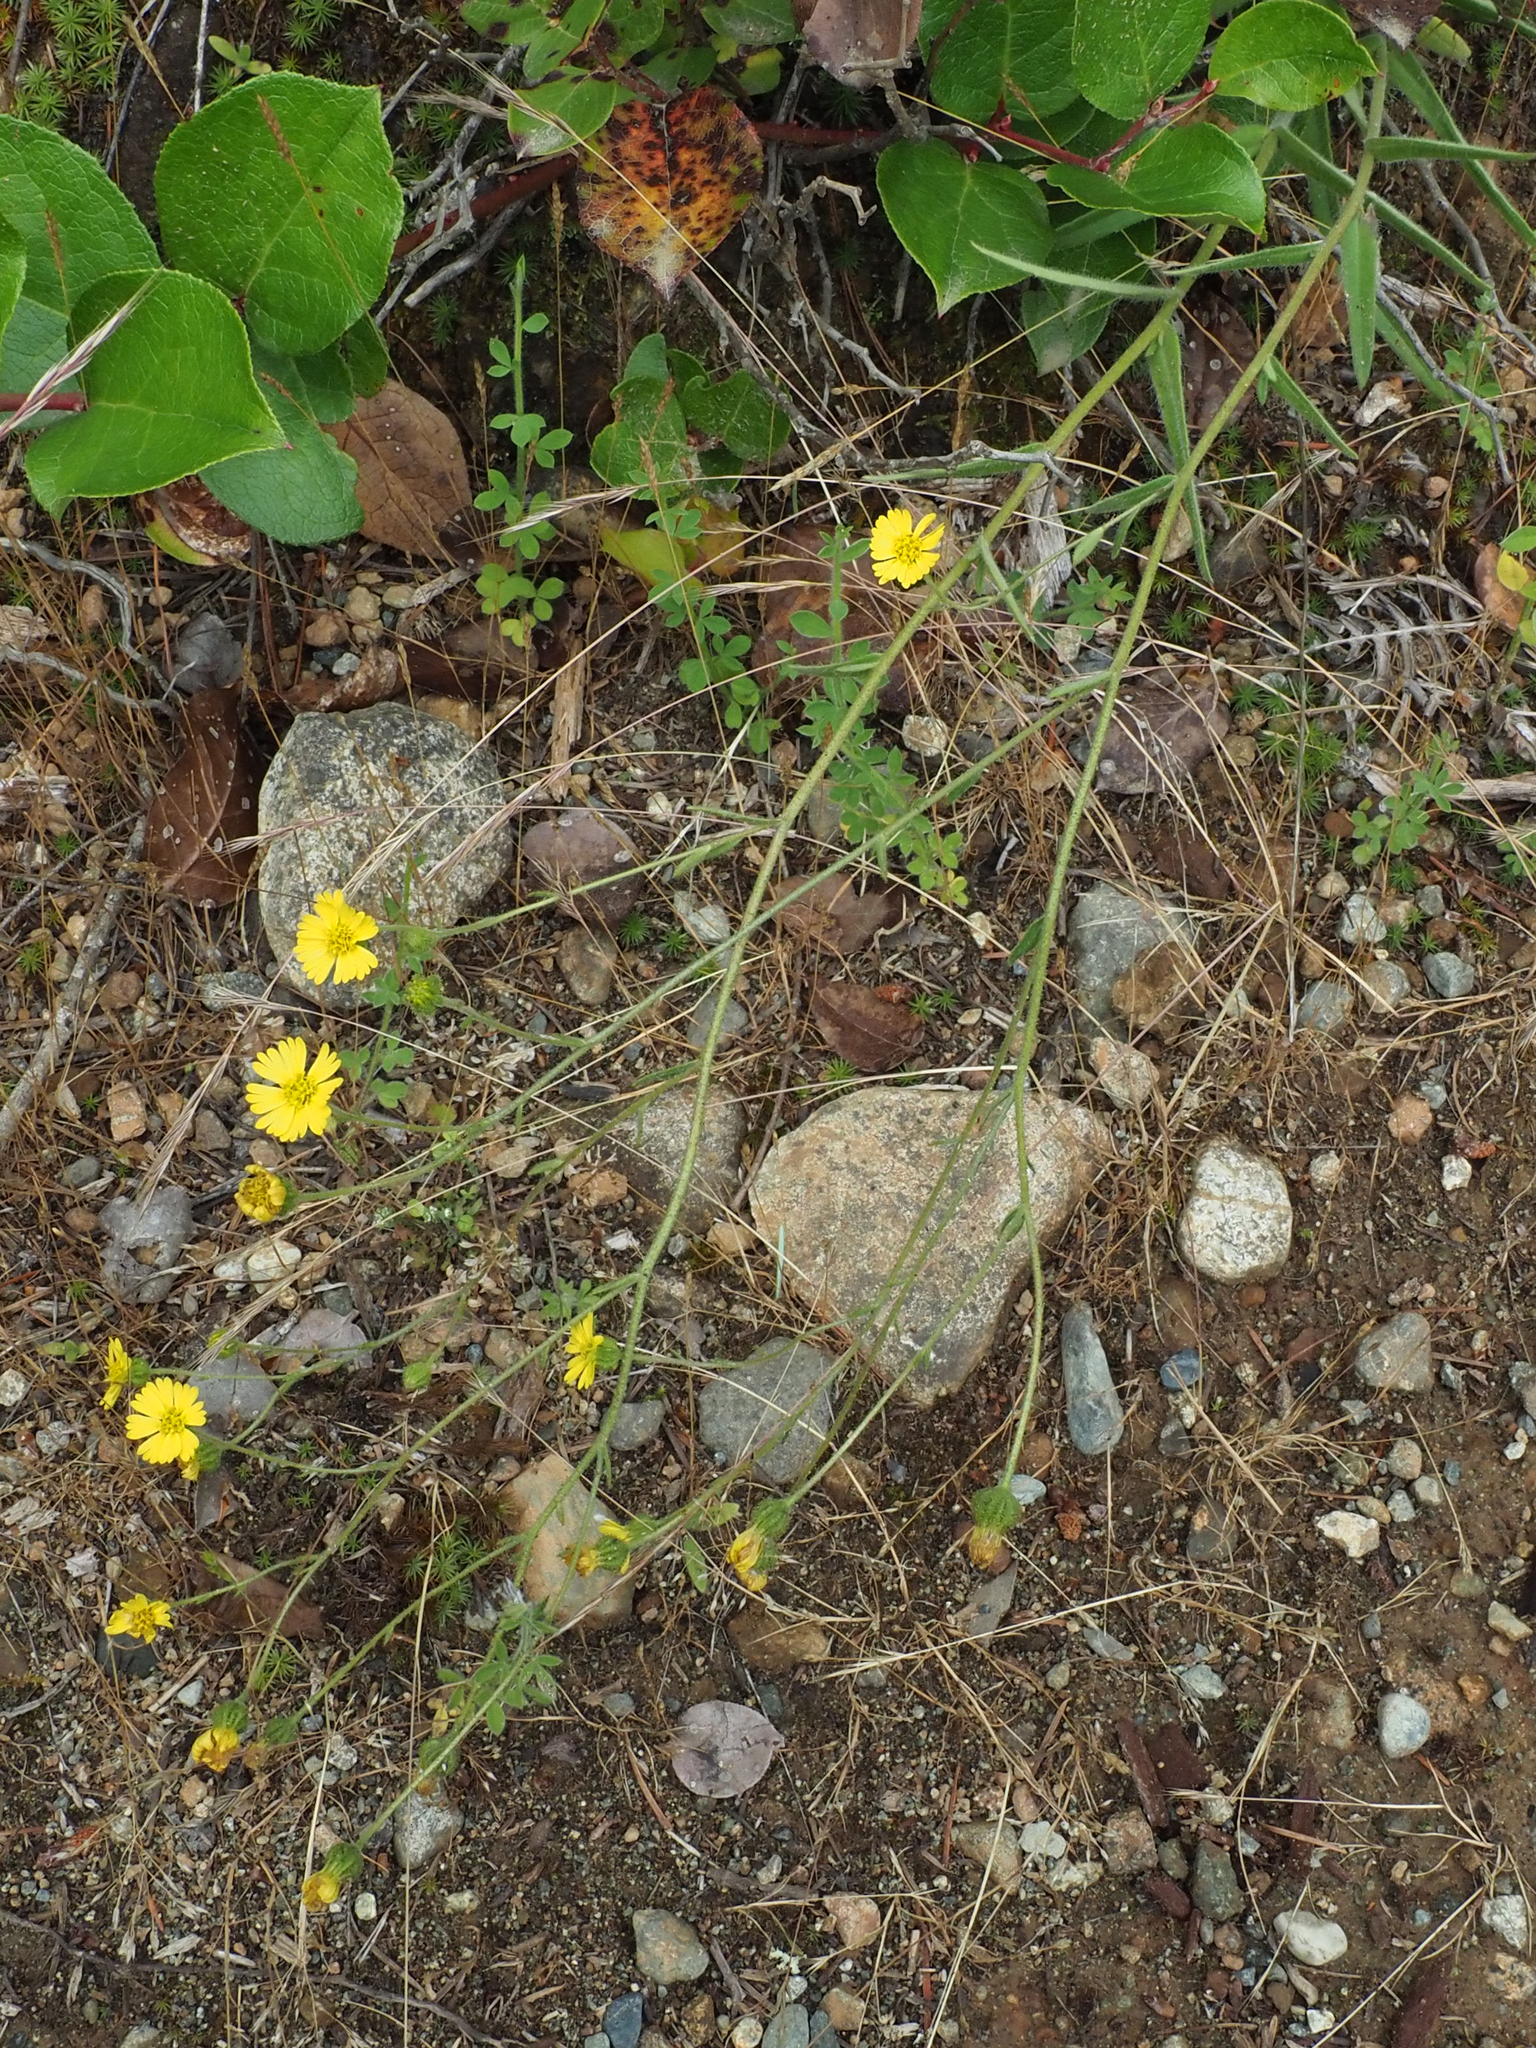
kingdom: Plantae
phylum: Tracheophyta
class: Magnoliopsida
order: Asterales
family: Asteraceae
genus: Anisocarpus
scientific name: Anisocarpus madioides
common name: Woodland madia
